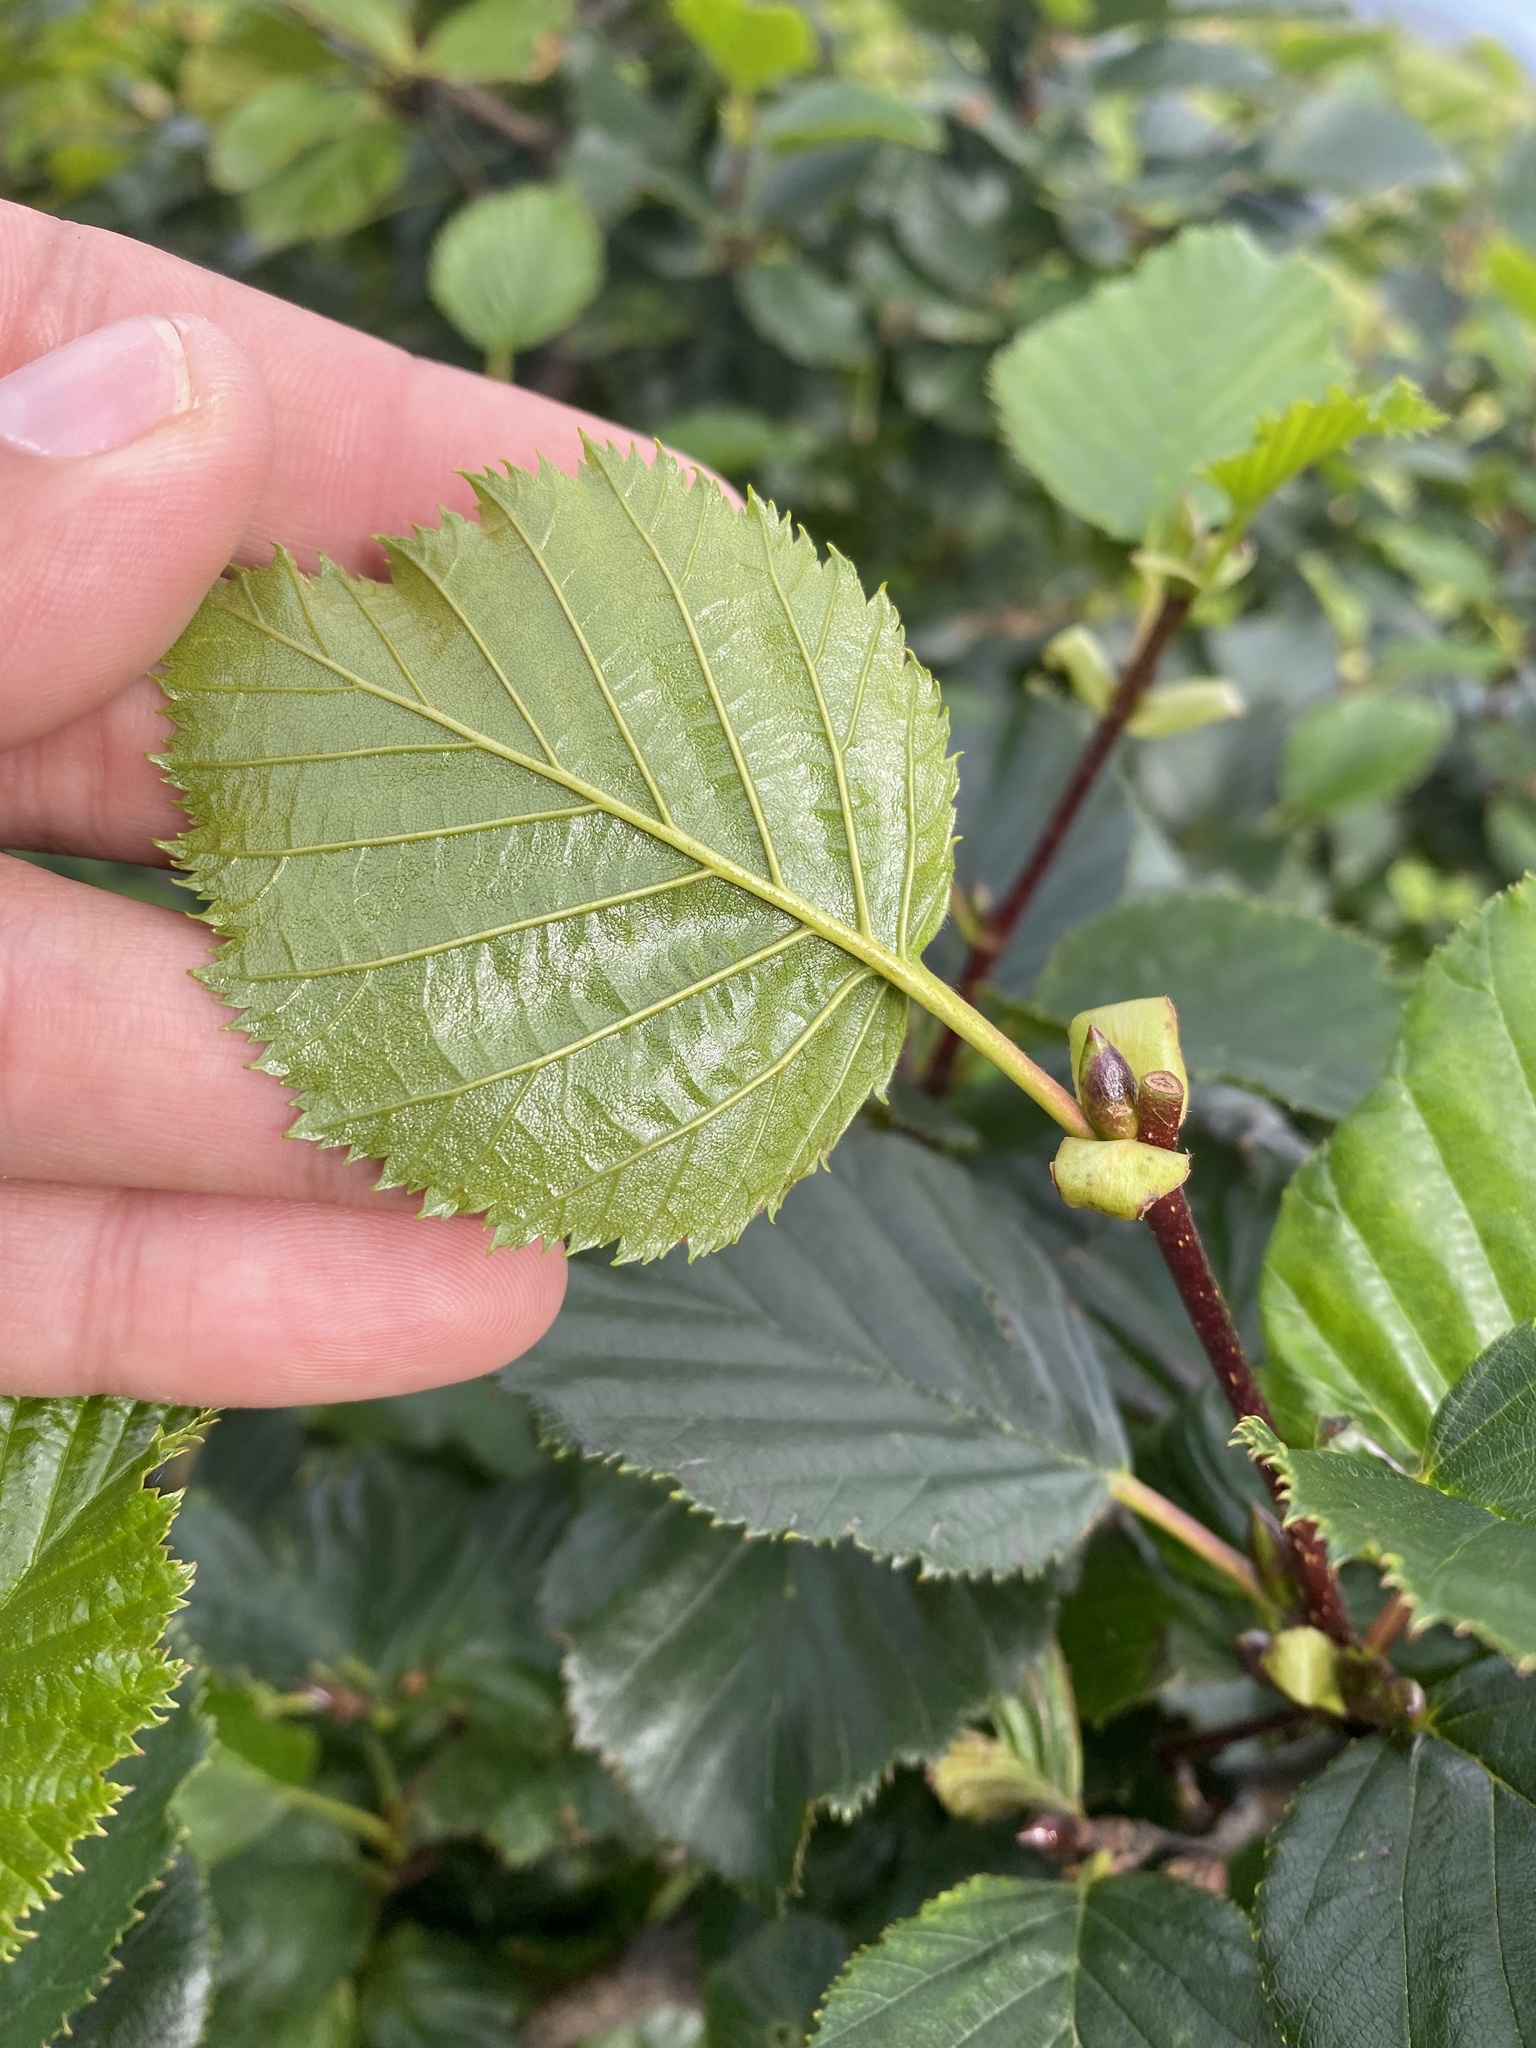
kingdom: Plantae
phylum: Tracheophyta
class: Magnoliopsida
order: Fagales
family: Betulaceae
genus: Alnus
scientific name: Alnus alnobetula
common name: Green alder
